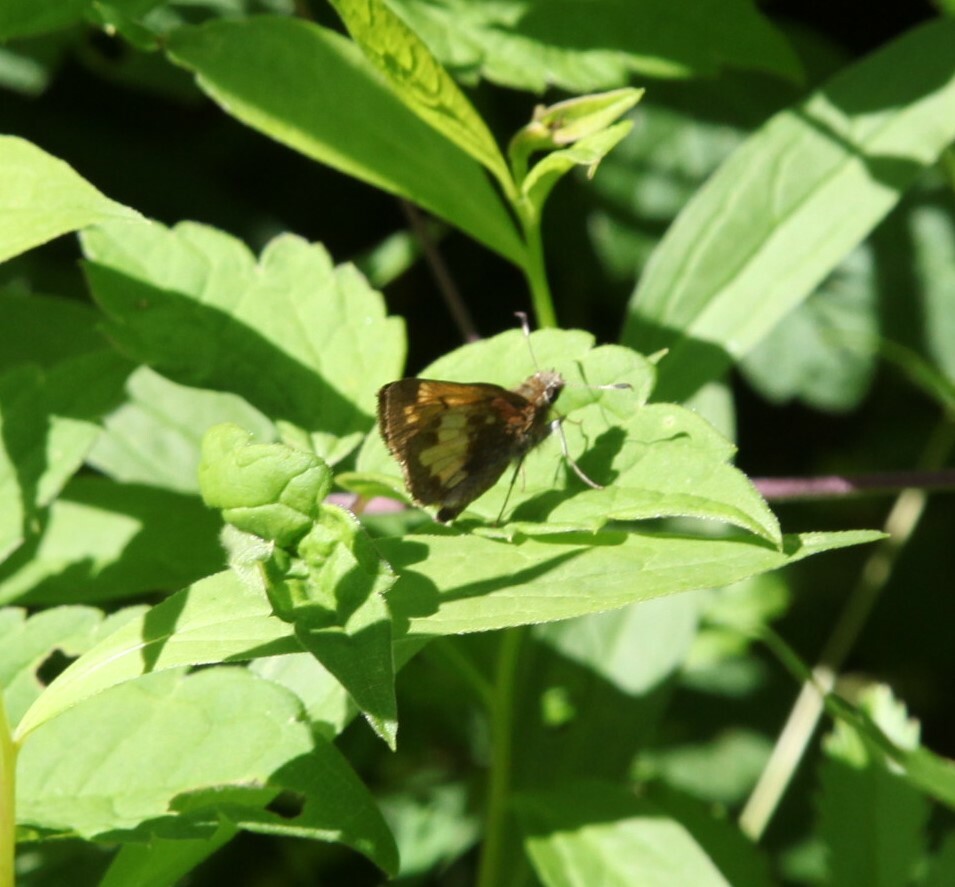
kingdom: Animalia
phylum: Arthropoda
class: Insecta
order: Lepidoptera
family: Hesperiidae
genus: Lon
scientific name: Lon hobomok
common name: Hobomok skipper
